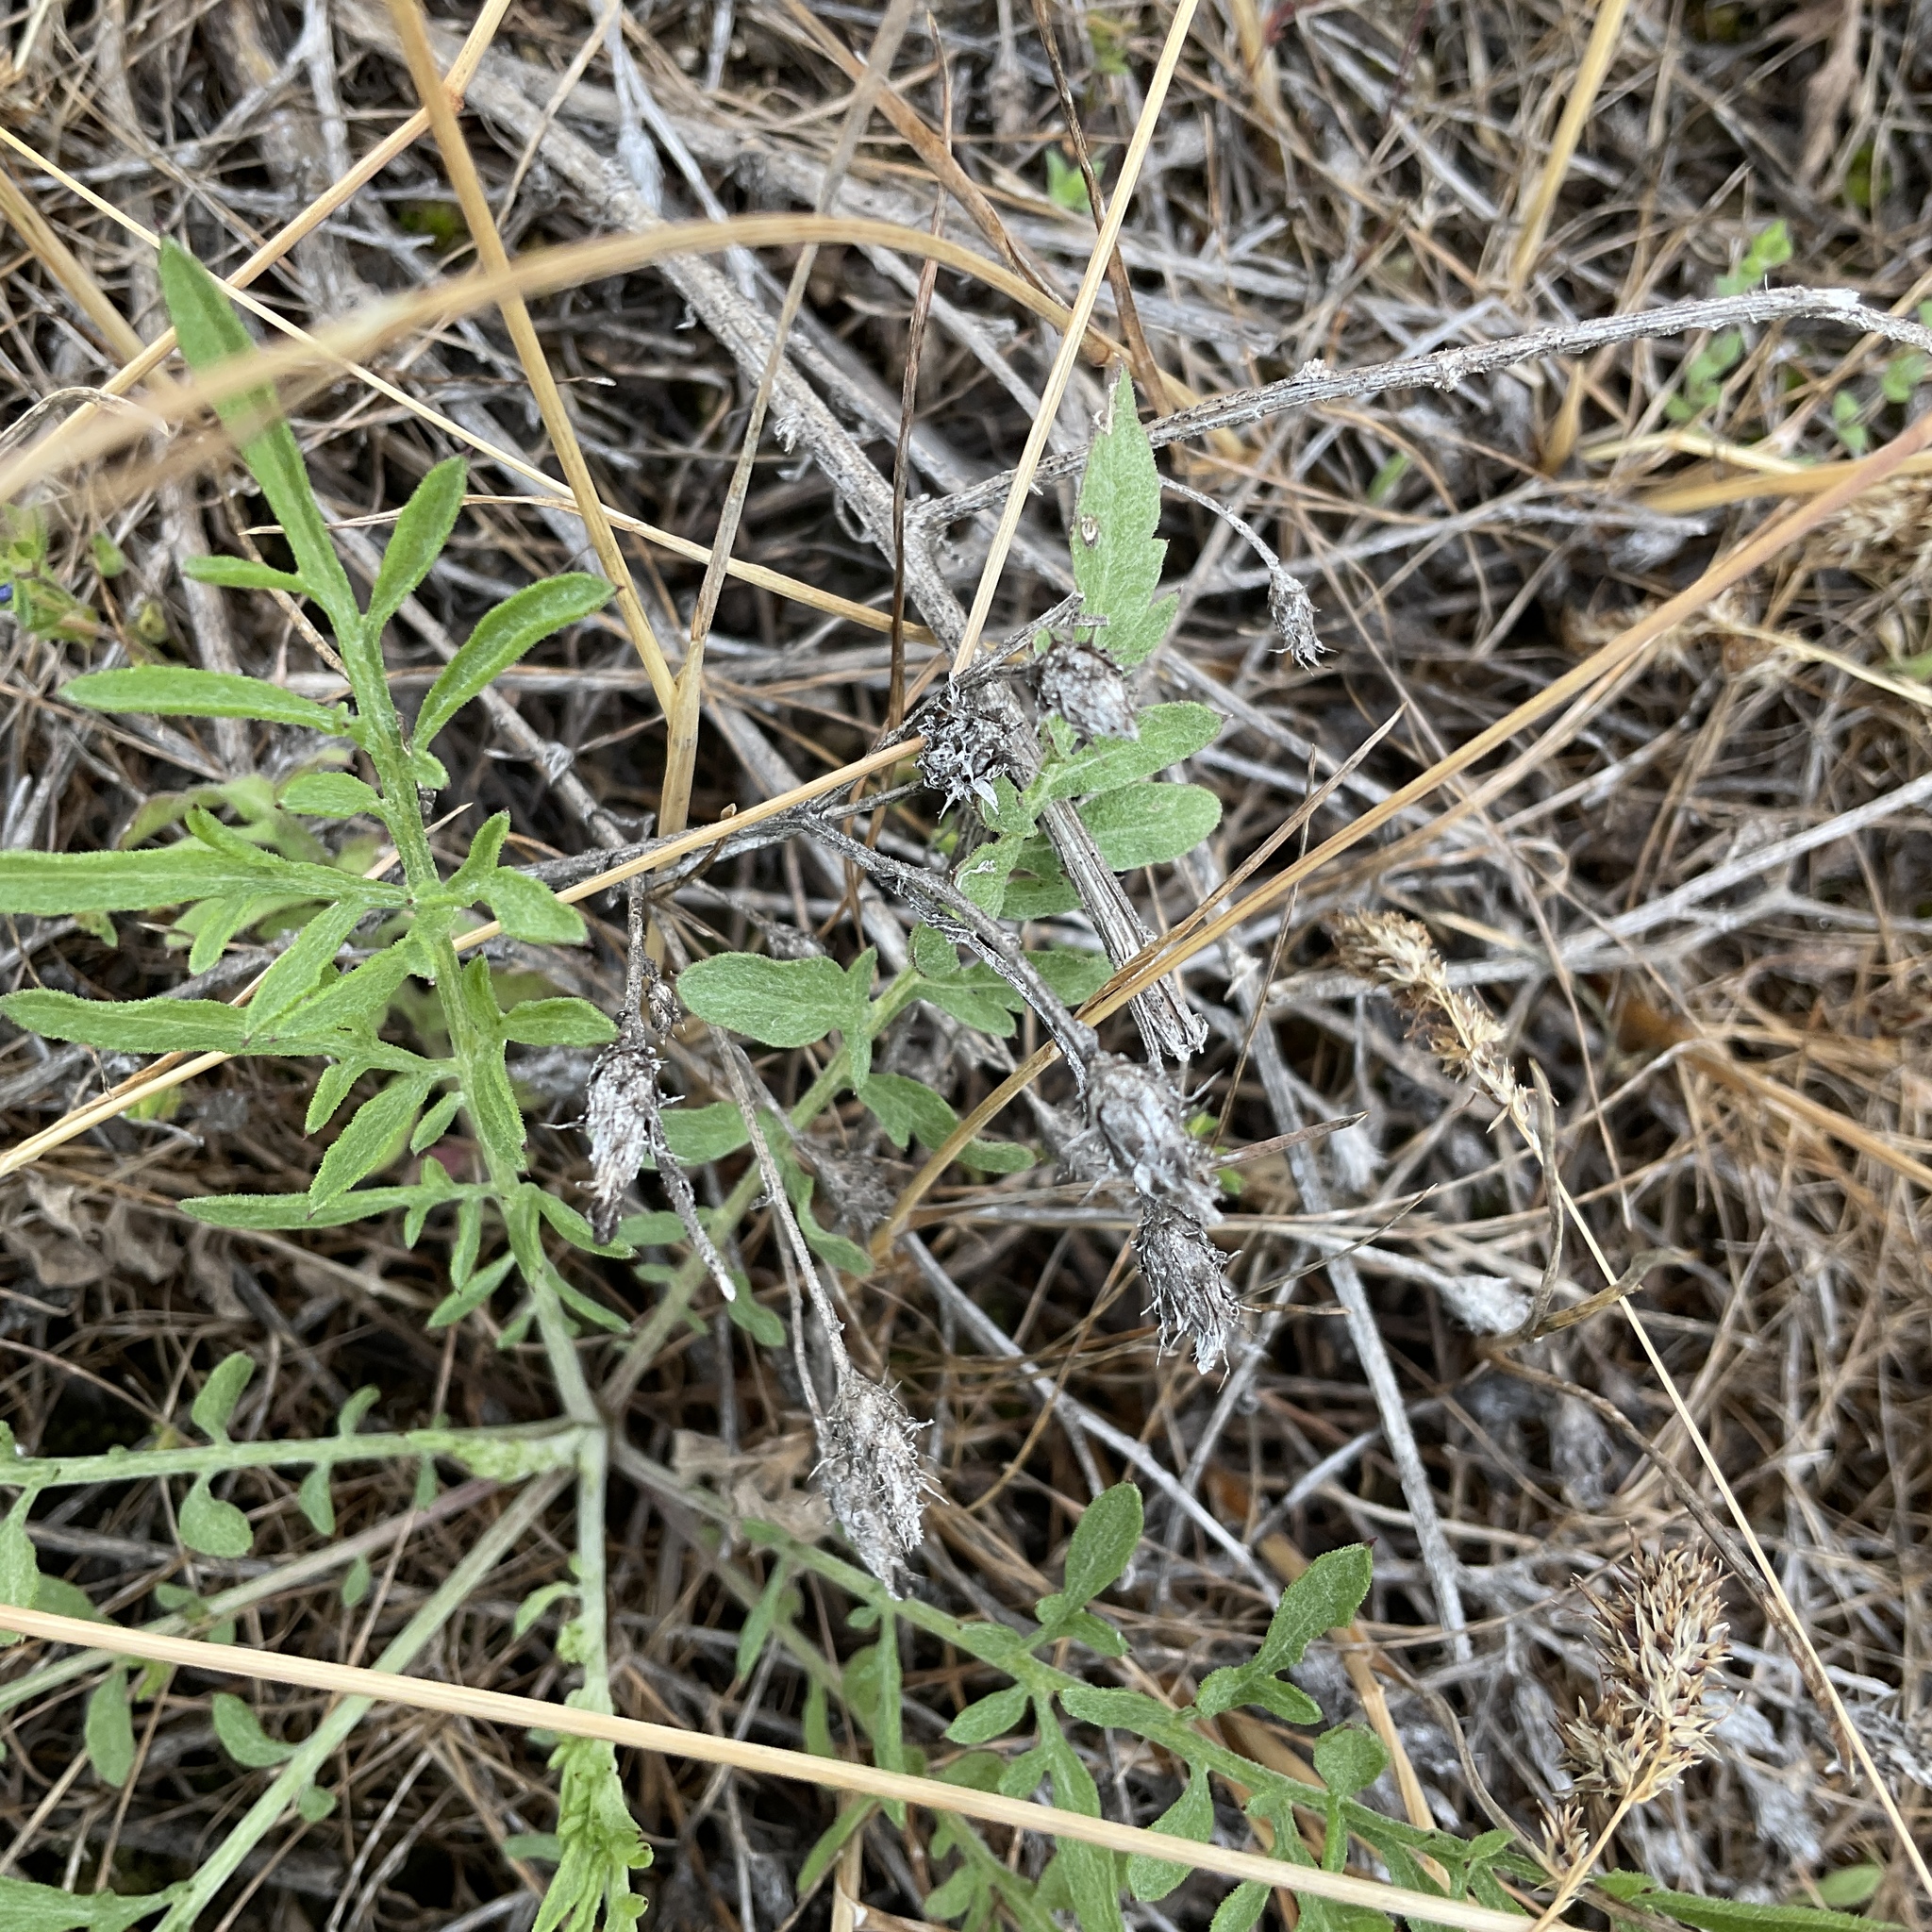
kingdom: Plantae
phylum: Tracheophyta
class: Magnoliopsida
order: Asterales
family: Asteraceae
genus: Centaurea
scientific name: Centaurea diffusa
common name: Diffuse knapweed
